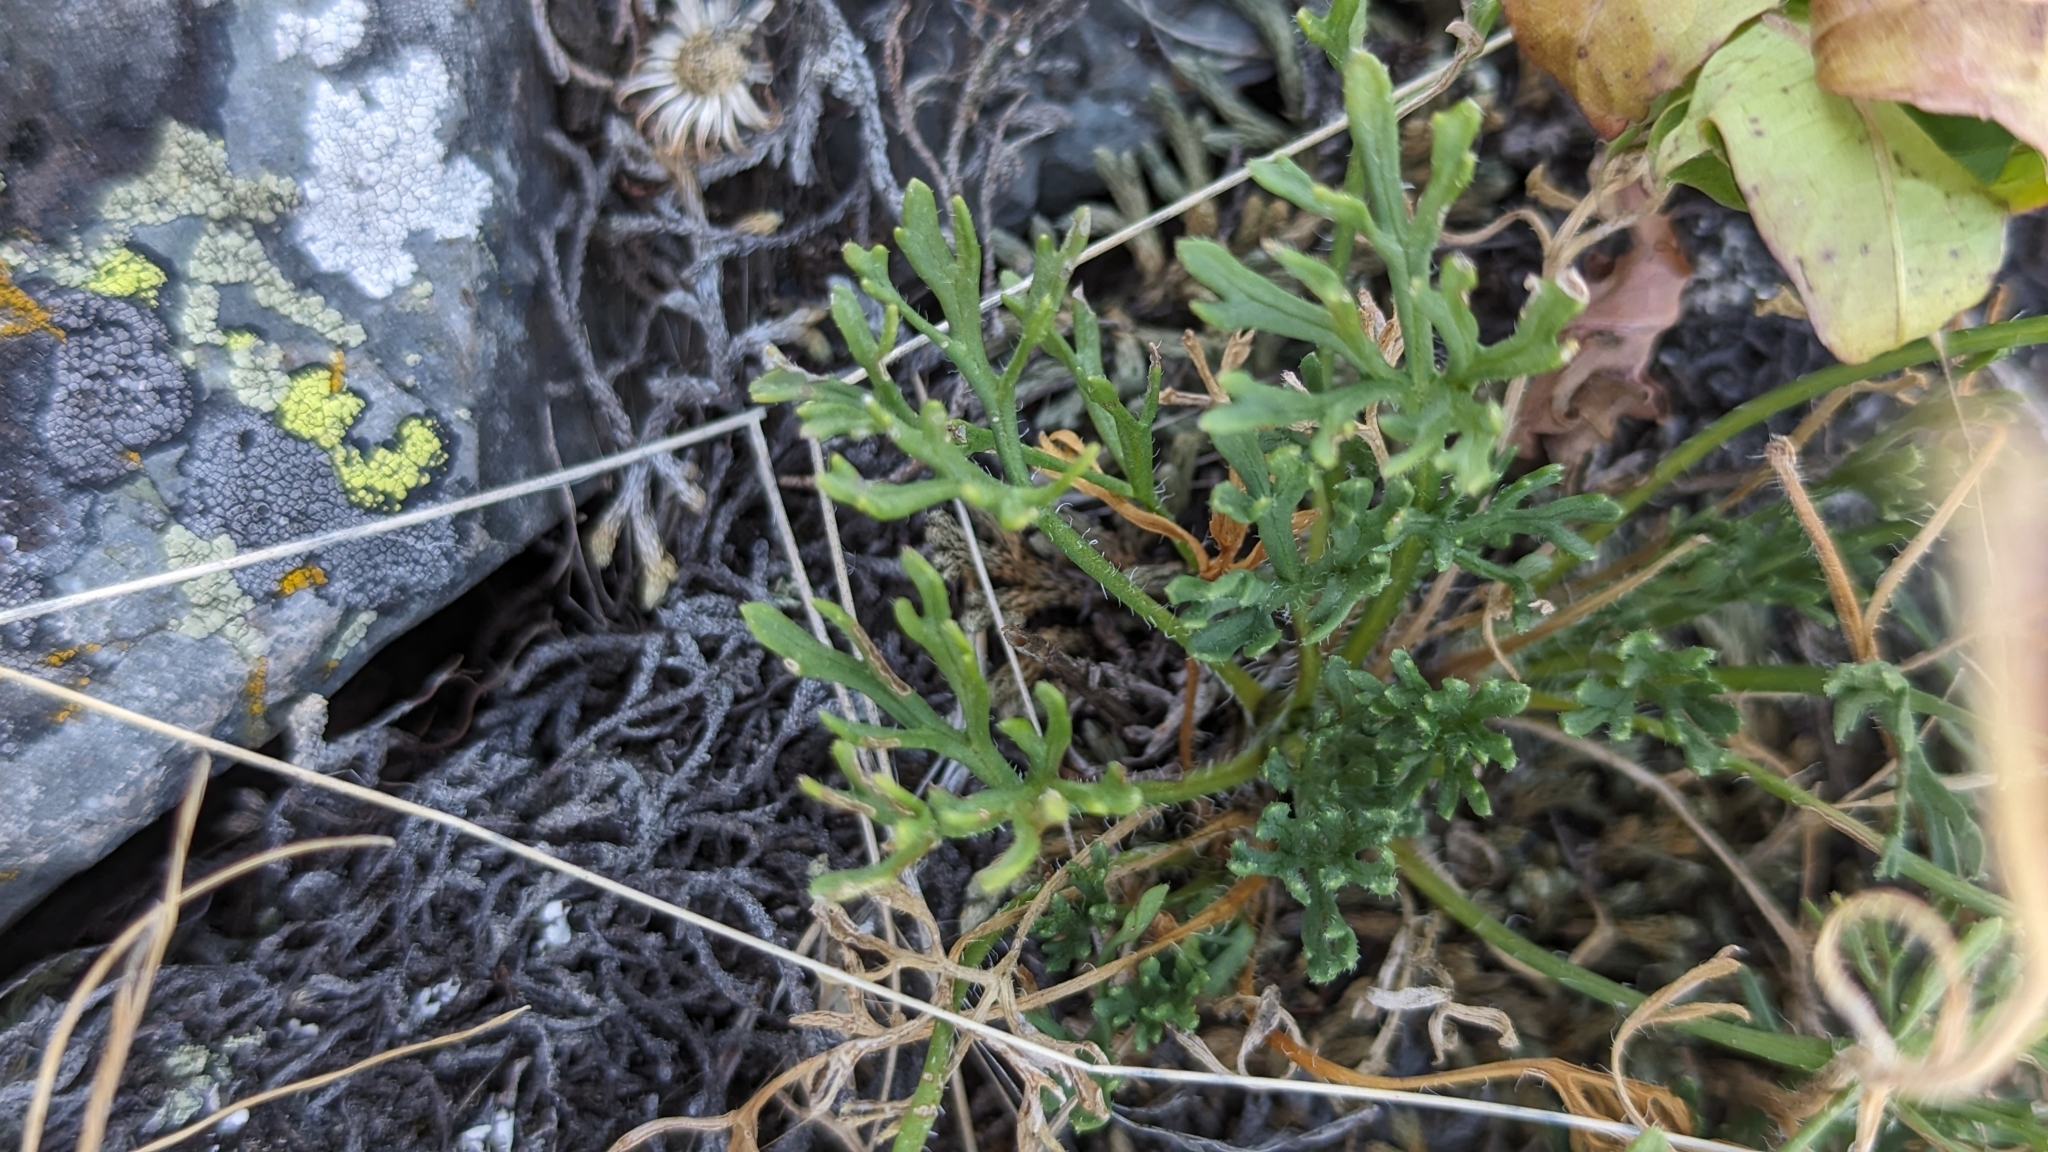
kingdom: Plantae
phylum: Tracheophyta
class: Magnoliopsida
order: Asterales
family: Asteraceae
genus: Erigeron
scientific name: Erigeron compositus
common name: Dwarf mountain fleabane
